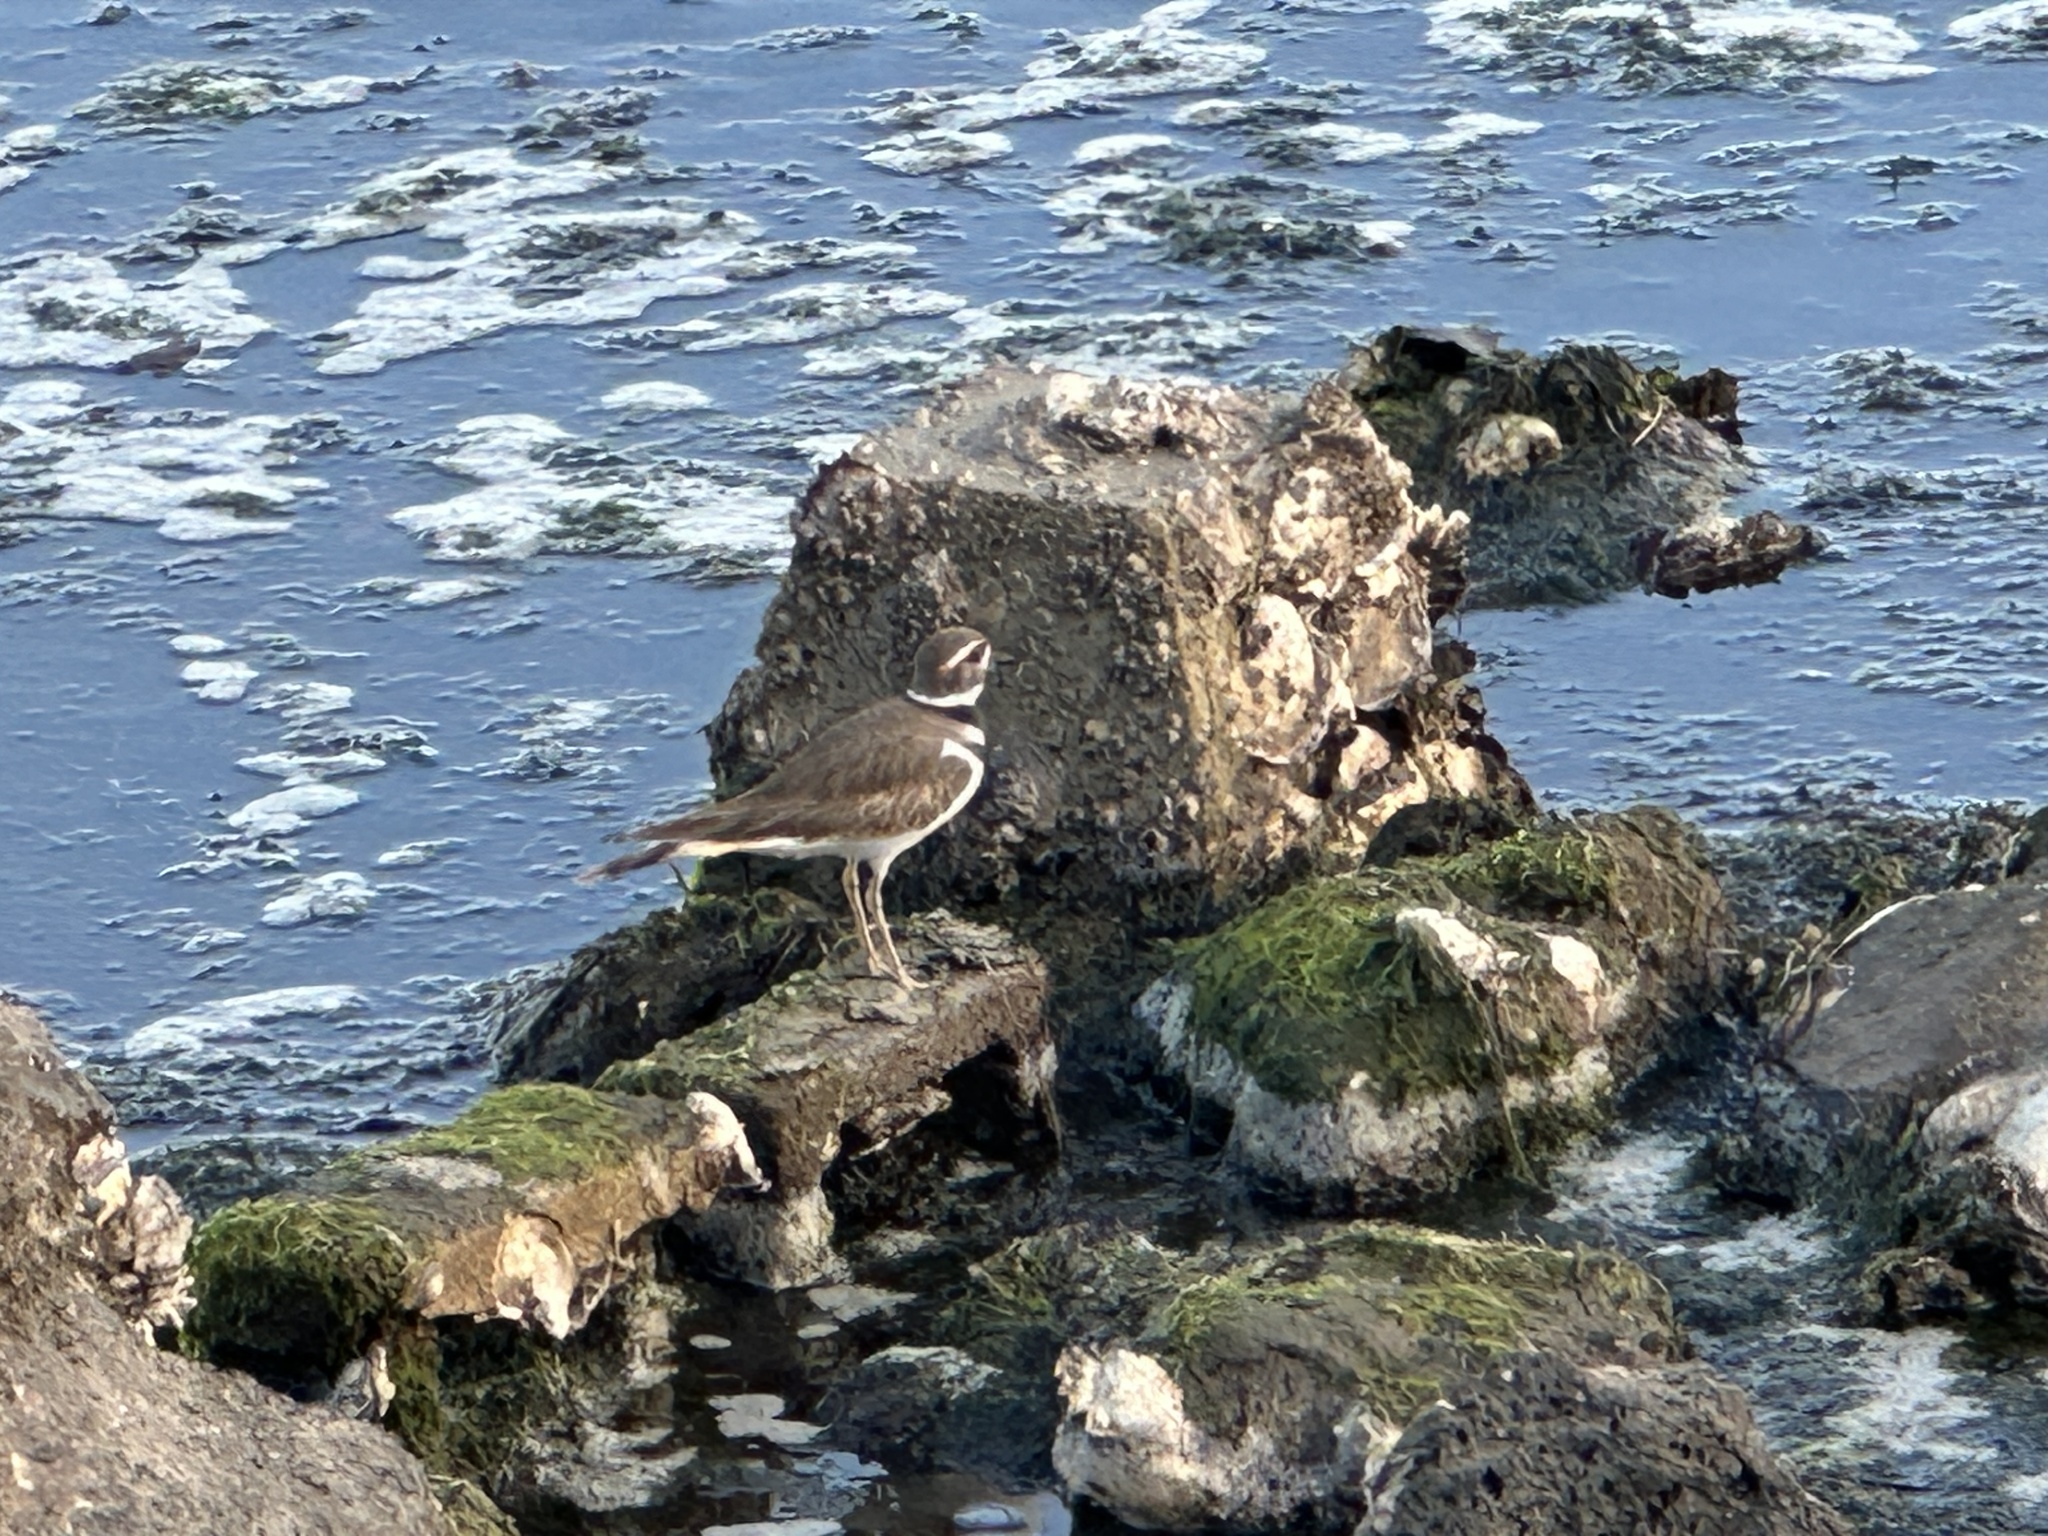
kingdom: Animalia
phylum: Chordata
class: Aves
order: Charadriiformes
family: Charadriidae
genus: Charadrius
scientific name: Charadrius vociferus
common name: Killdeer
